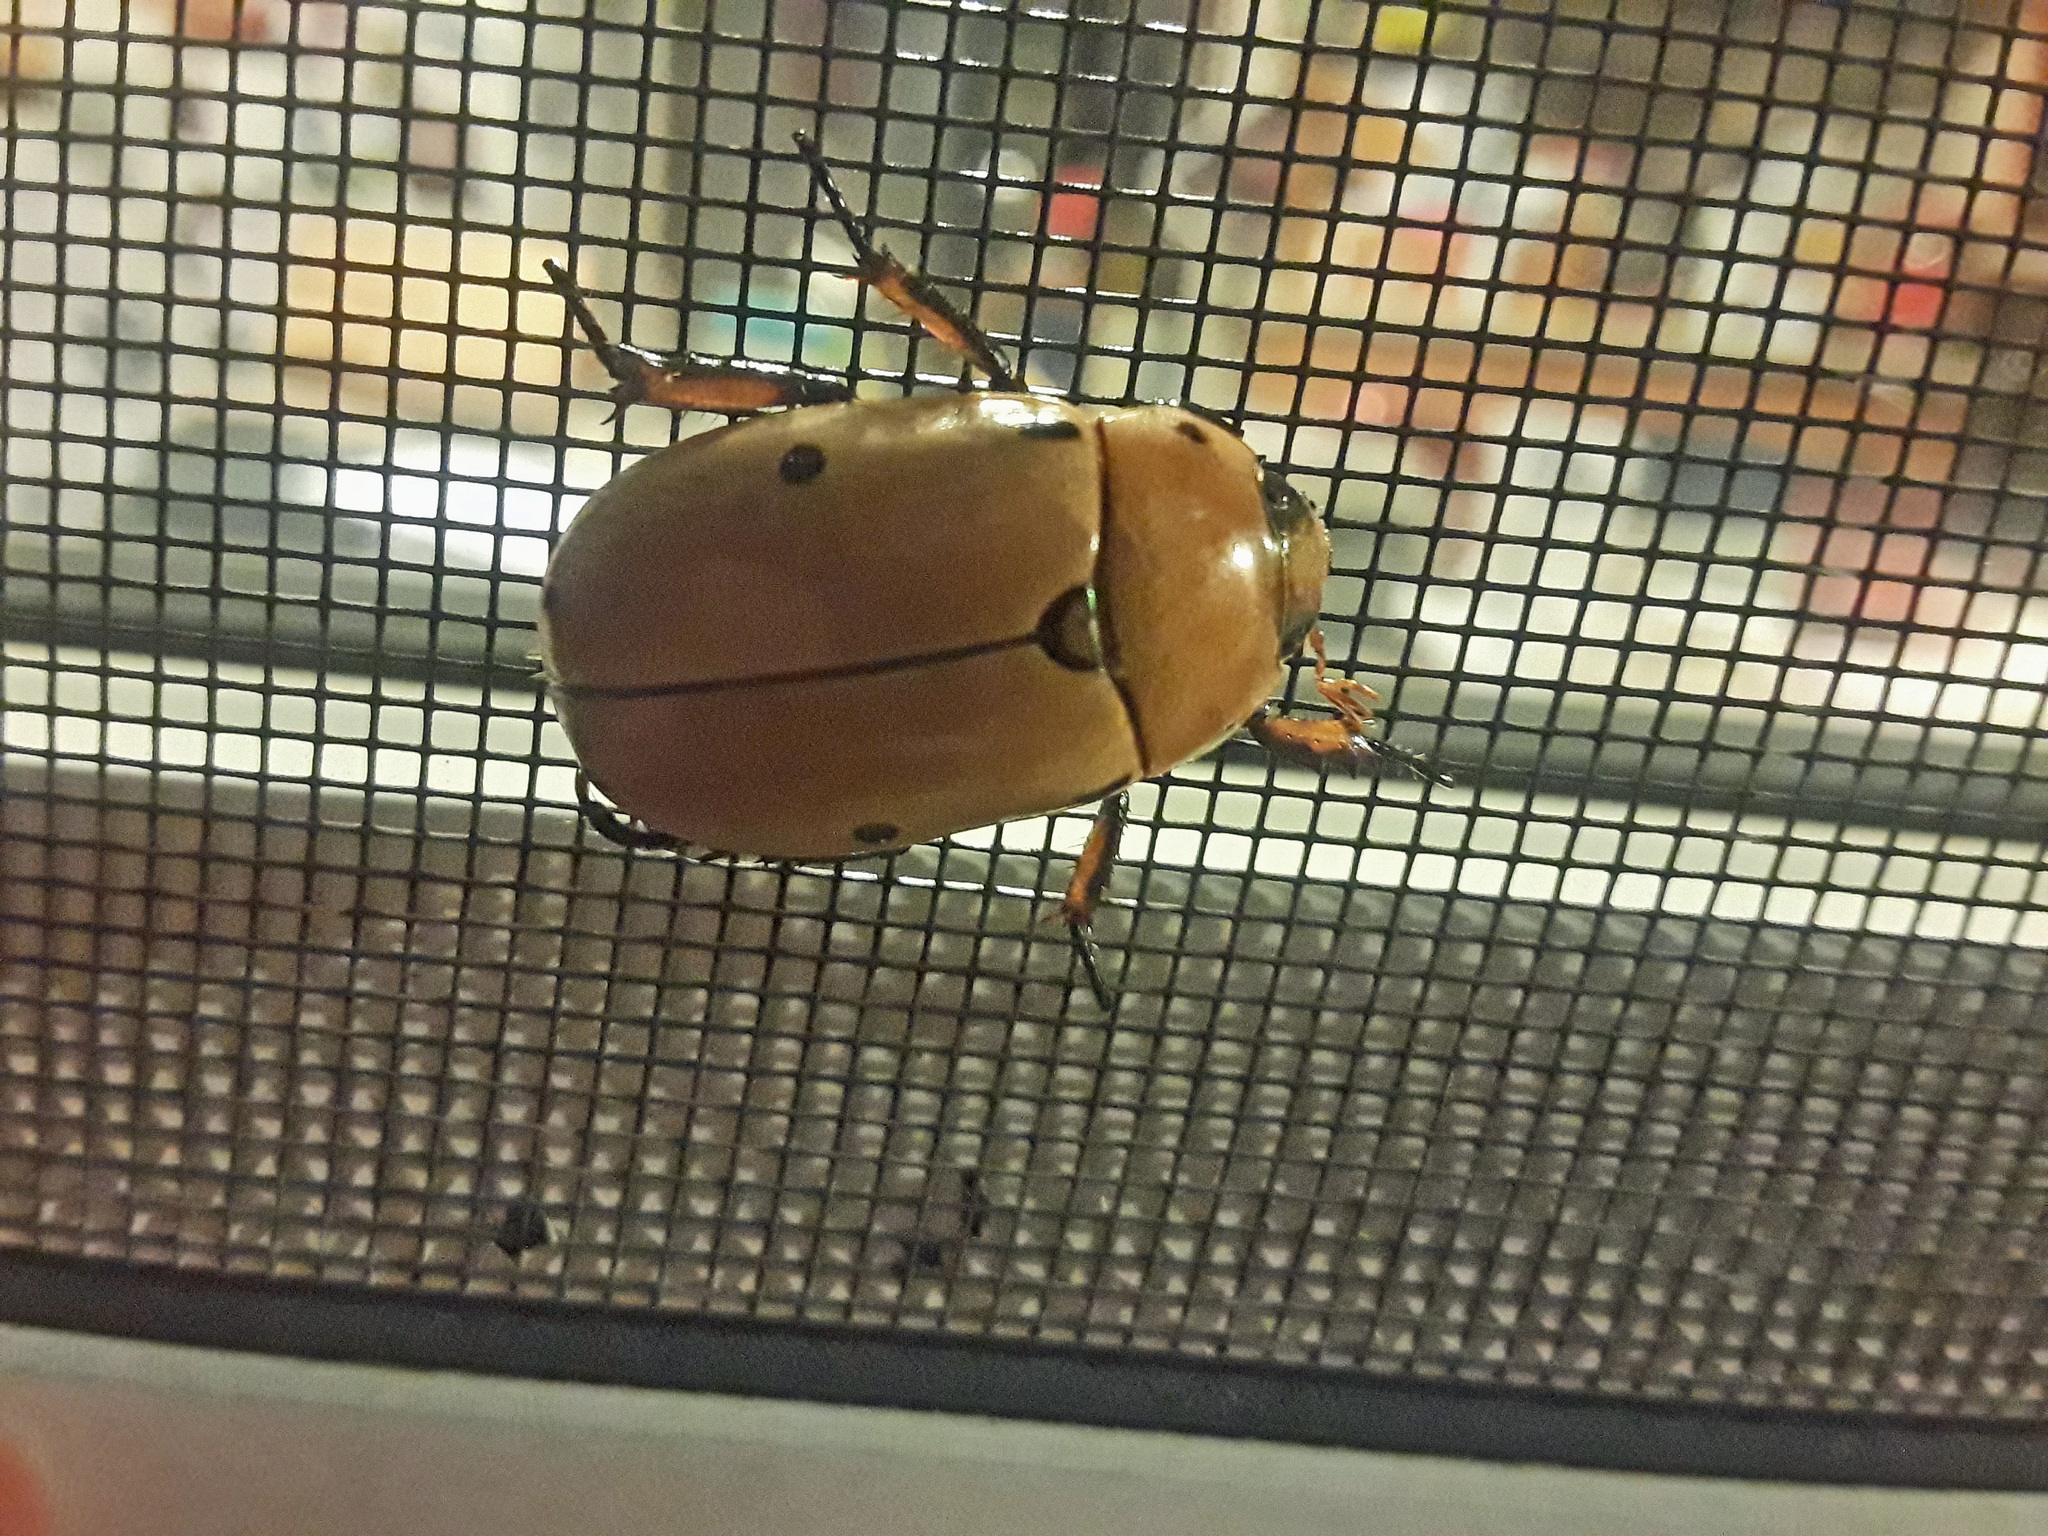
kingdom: Animalia
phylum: Arthropoda
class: Insecta
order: Coleoptera
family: Scarabaeidae
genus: Pelidnota
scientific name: Pelidnota punctata
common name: Grapevine beetle
